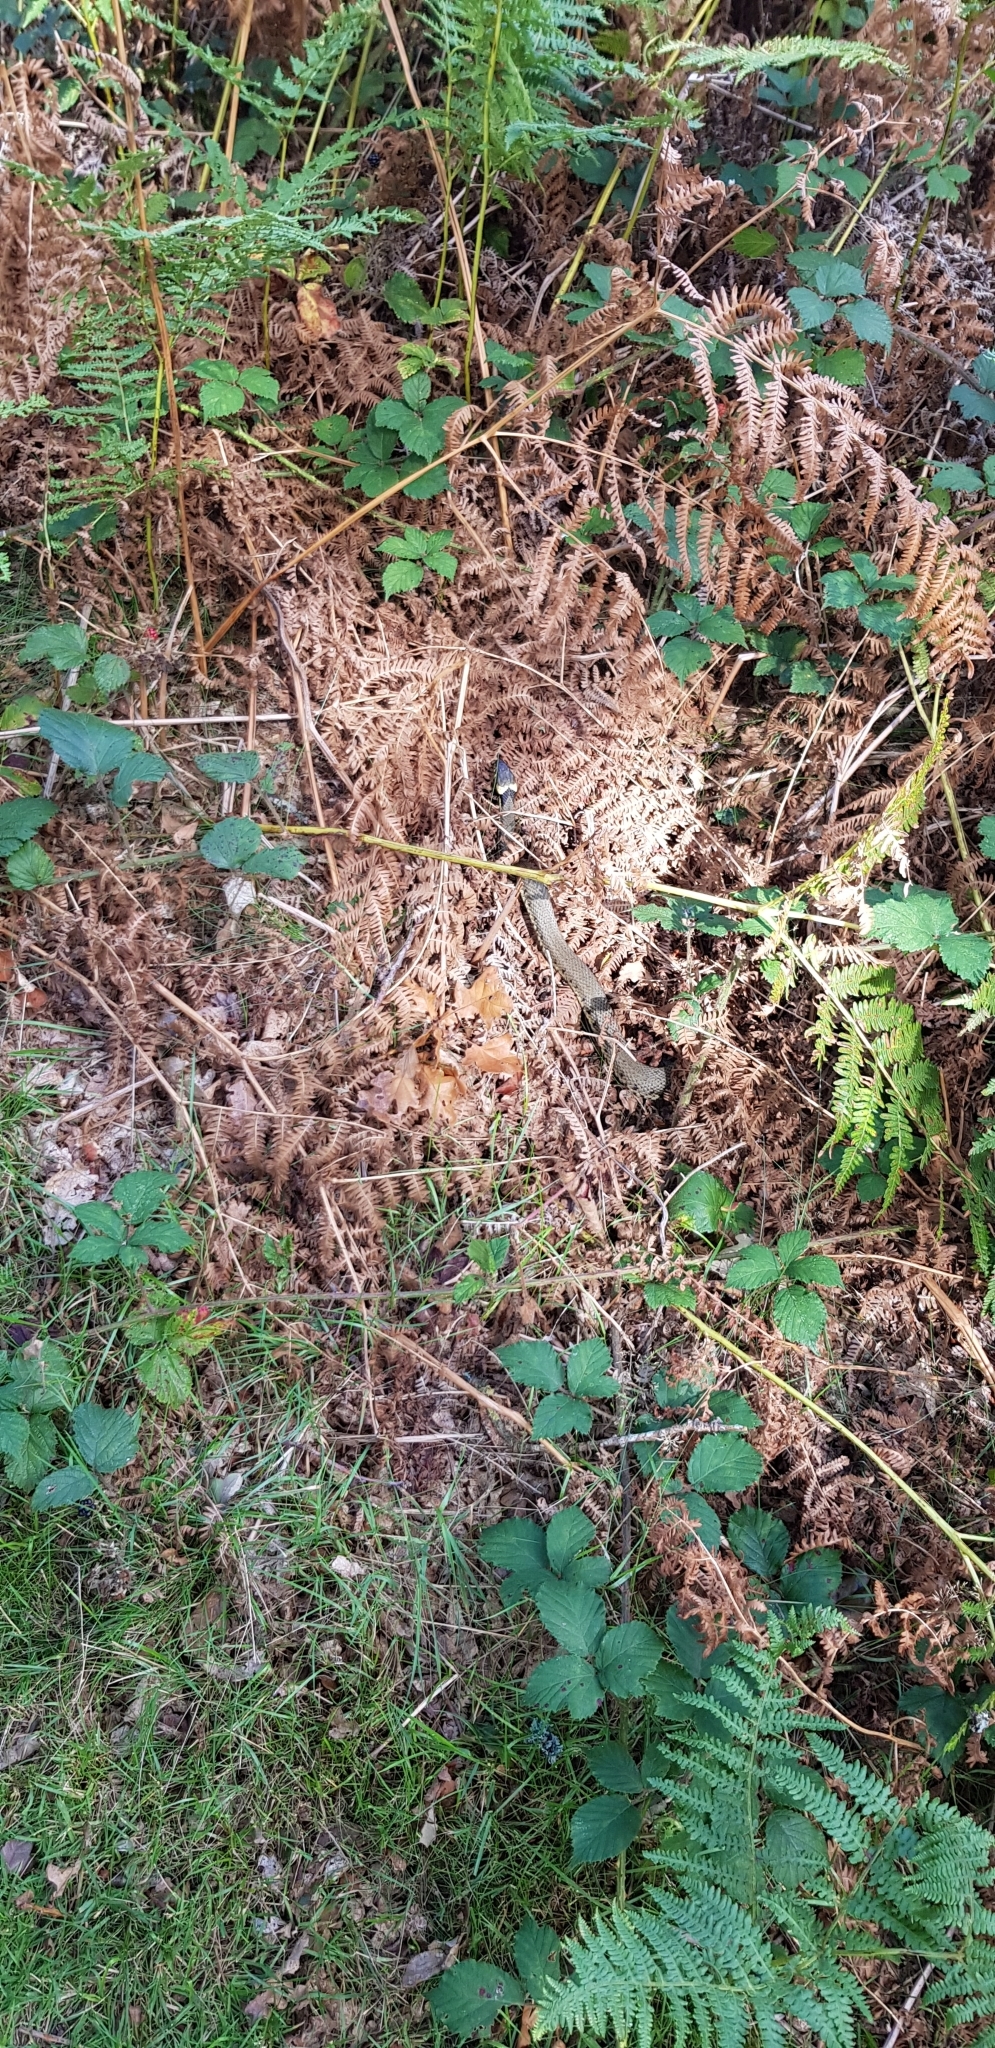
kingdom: Animalia
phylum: Chordata
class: Squamata
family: Colubridae
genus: Natrix
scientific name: Natrix helvetica
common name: Banded grass snake
